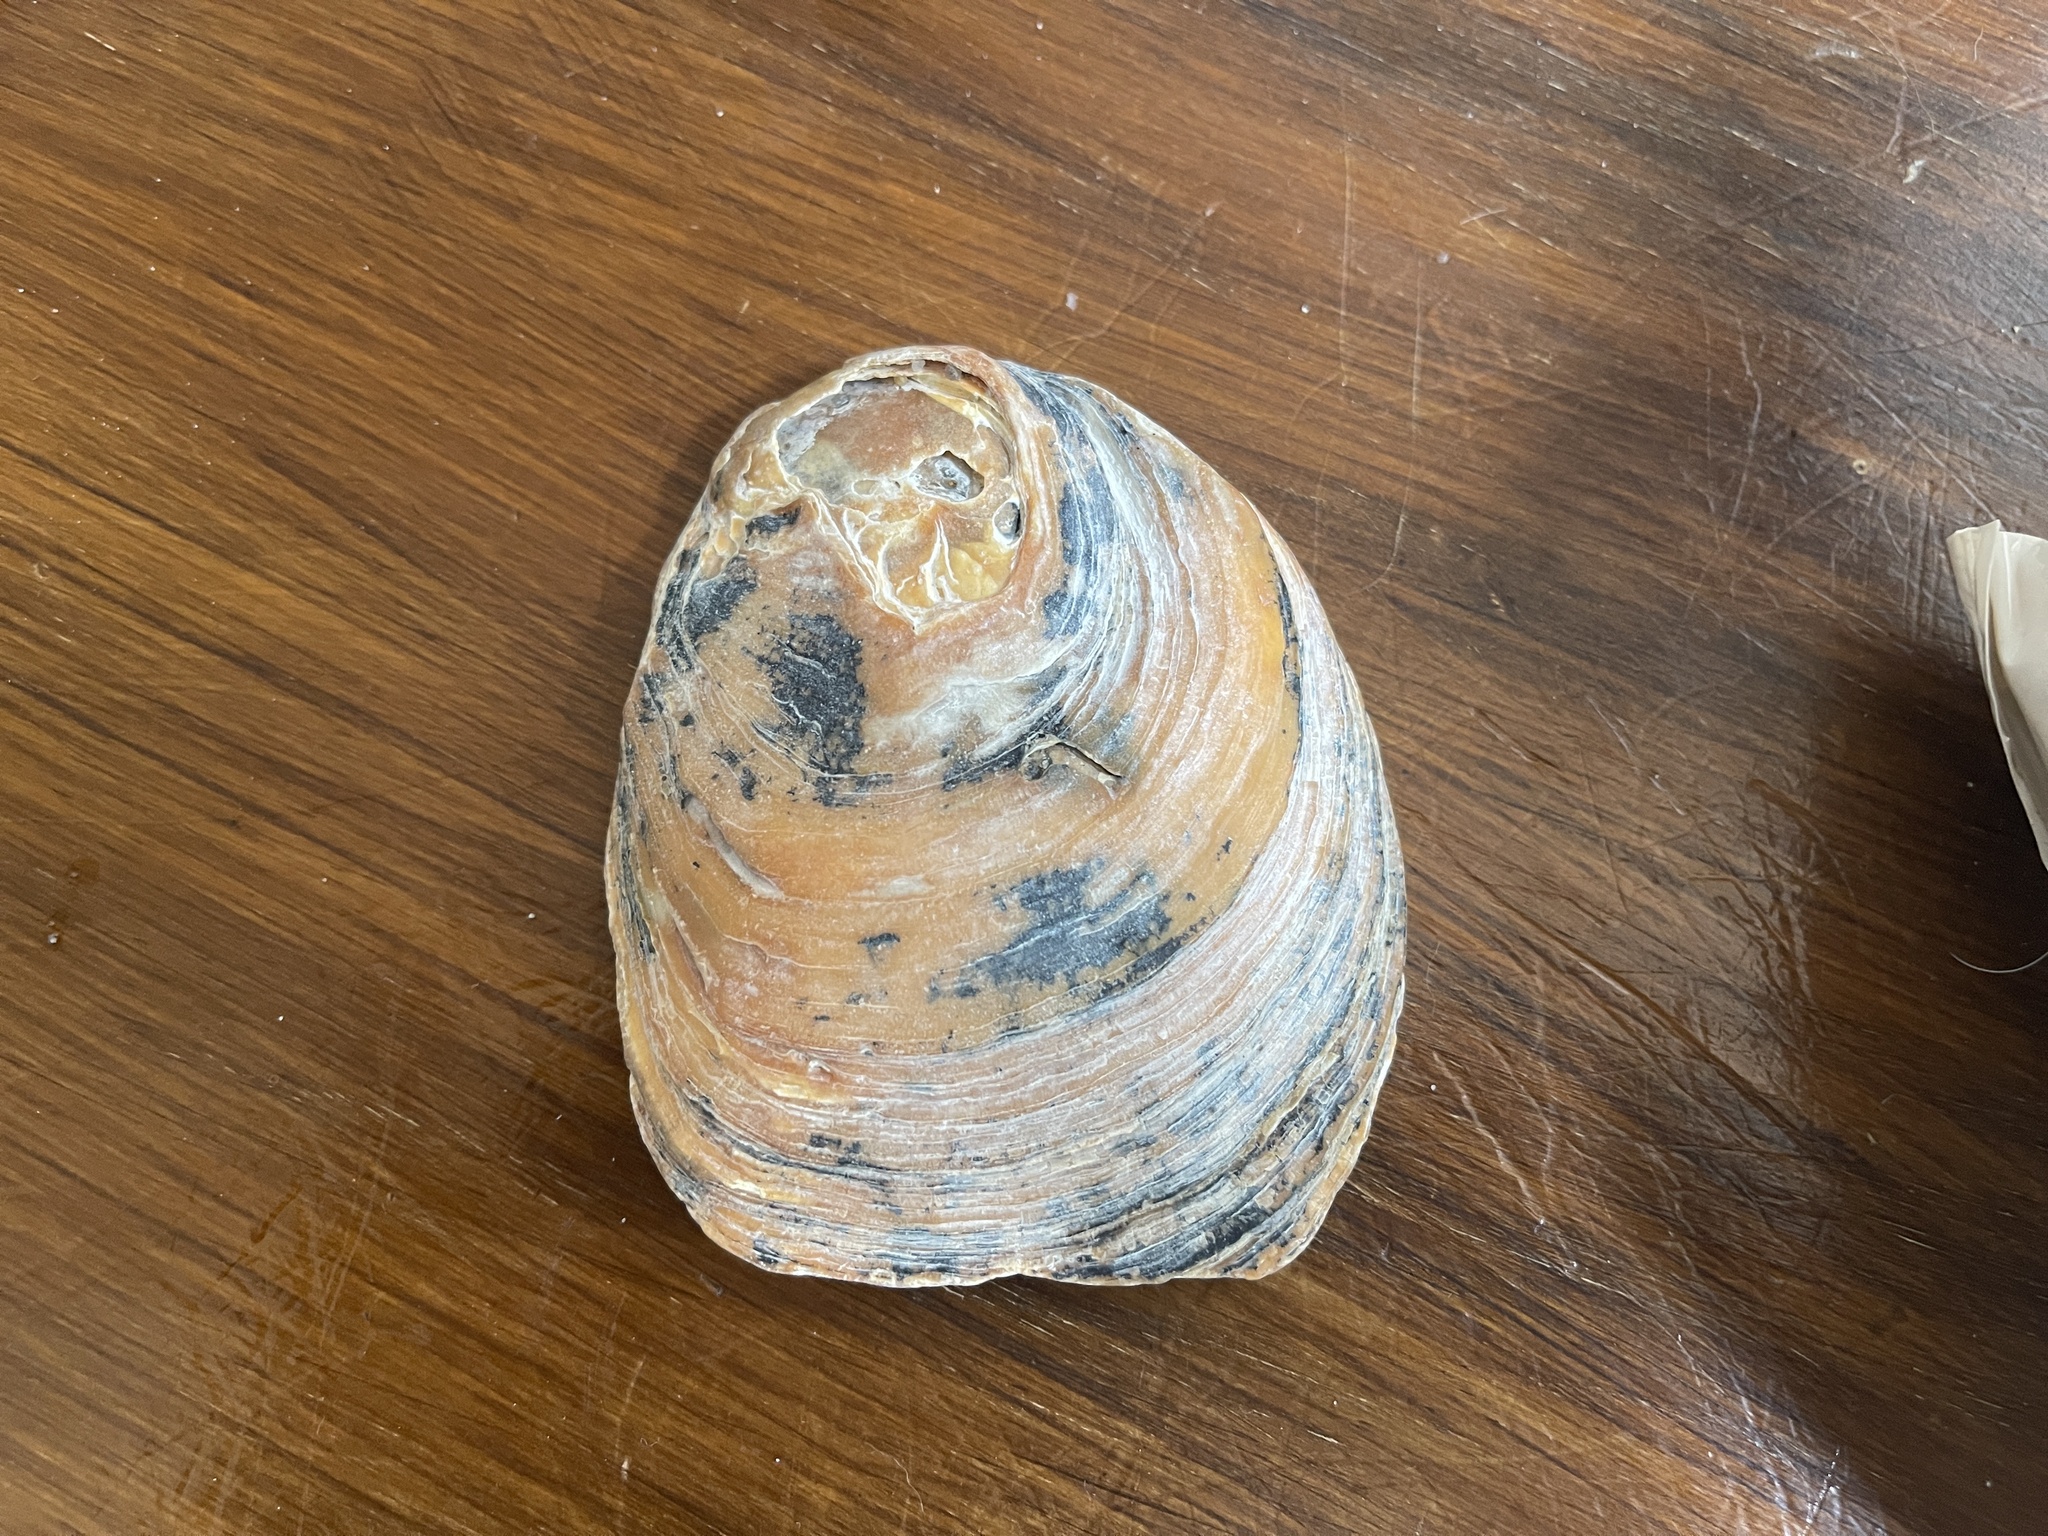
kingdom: Animalia
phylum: Mollusca
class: Bivalvia
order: Ostreida
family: Ostreidae
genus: Ostrea
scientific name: Ostrea angasi
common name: Angasi oyster
